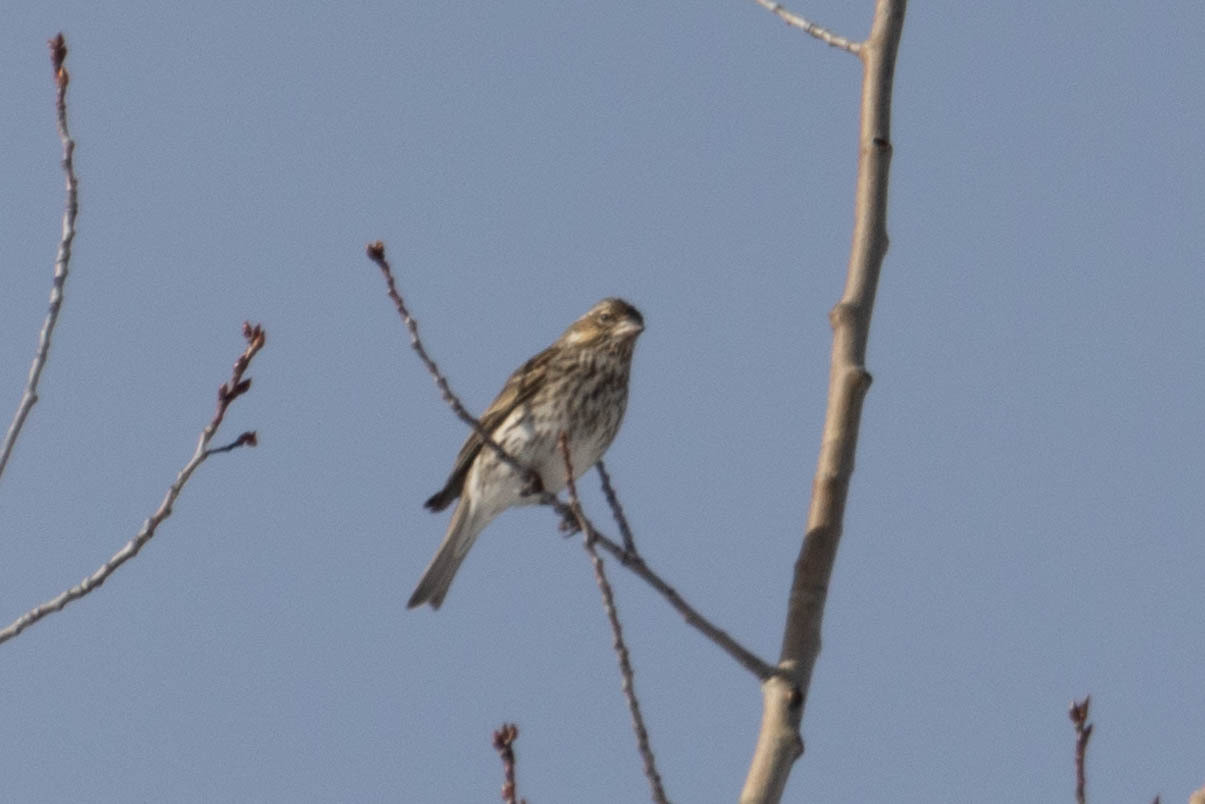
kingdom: Animalia
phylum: Chordata
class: Aves
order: Passeriformes
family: Fringillidae
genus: Haemorhous
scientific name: Haemorhous cassinii
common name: Cassin's finch
